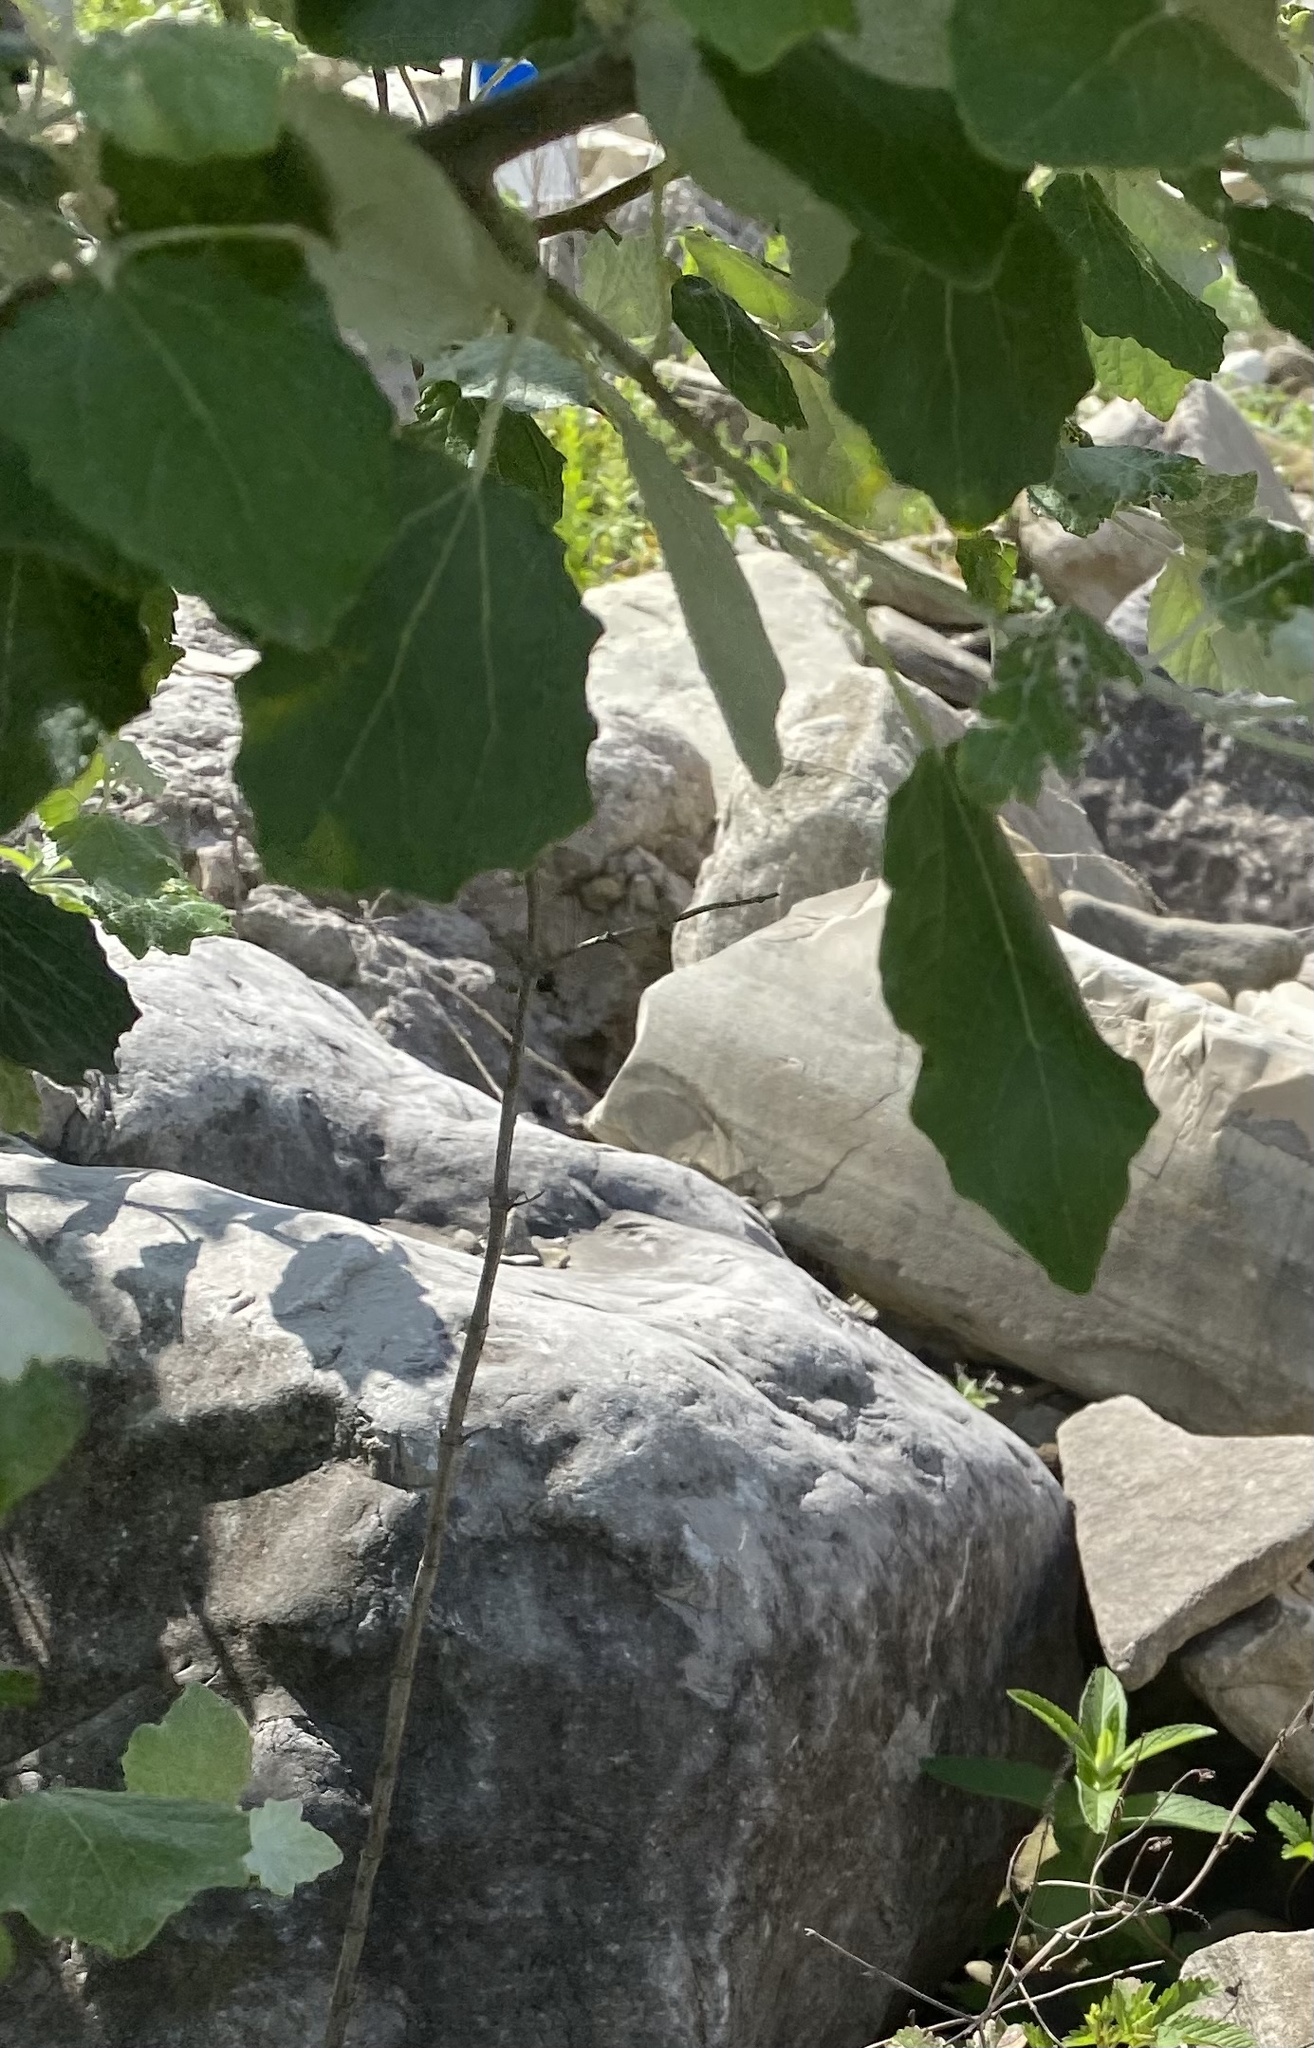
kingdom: Plantae
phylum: Tracheophyta
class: Magnoliopsida
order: Malpighiales
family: Salicaceae
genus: Populus
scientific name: Populus alba
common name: White poplar
